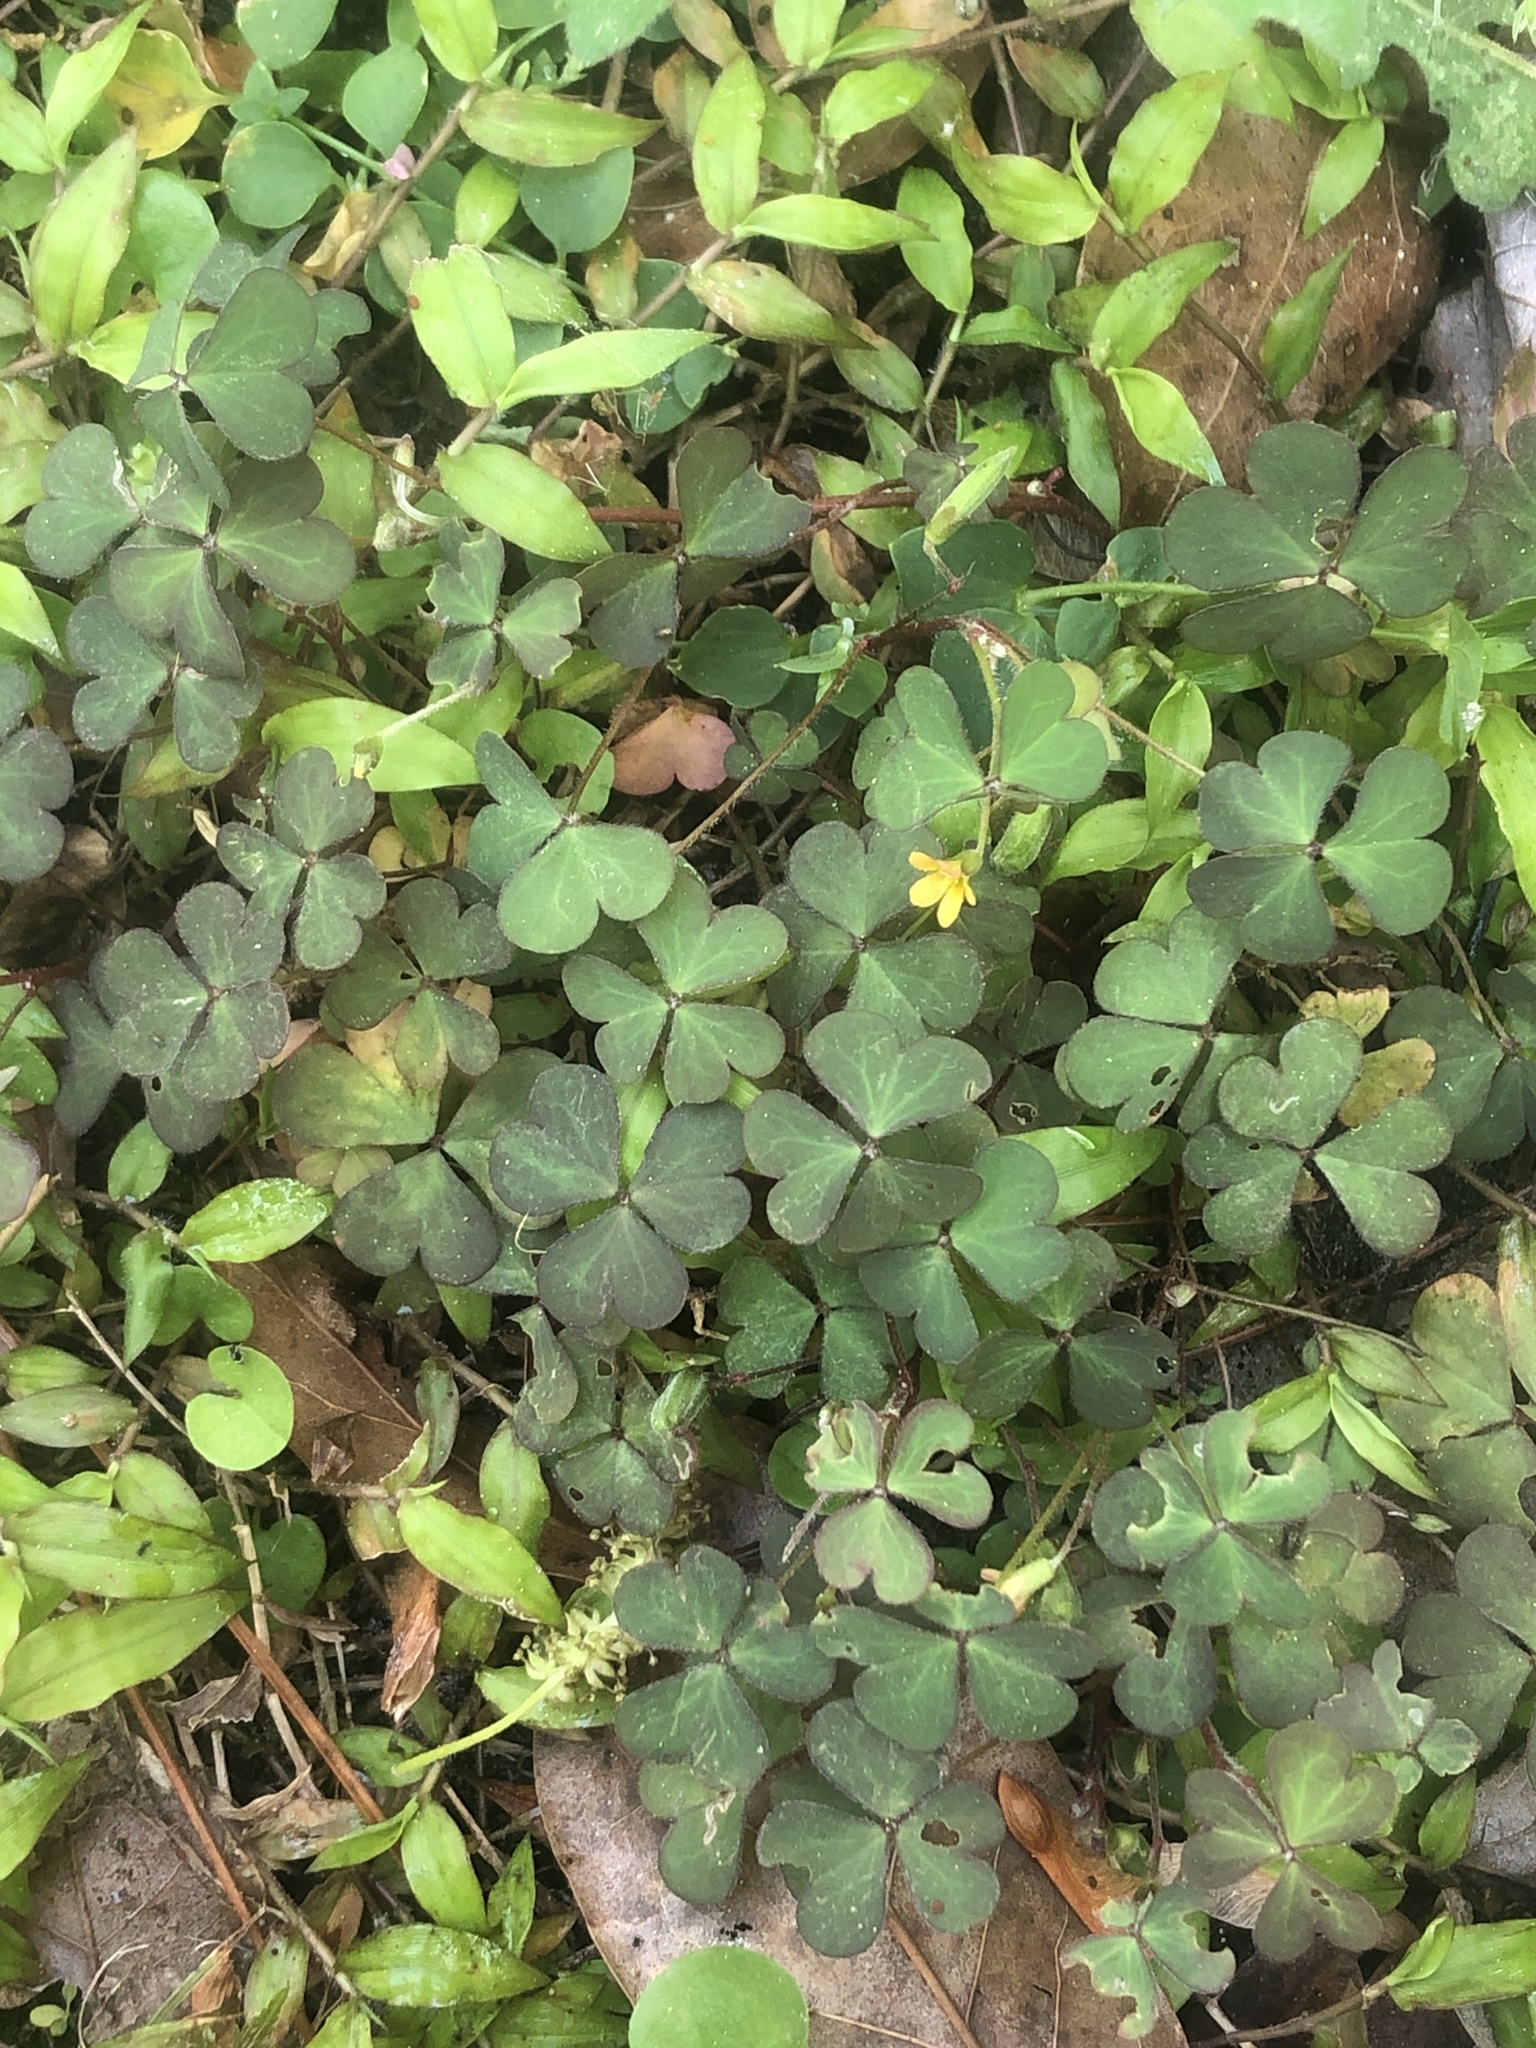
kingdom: Plantae
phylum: Tracheophyta
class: Magnoliopsida
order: Oxalidales
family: Oxalidaceae
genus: Oxalis
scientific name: Oxalis corniculata
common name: Procumbent yellow-sorrel
